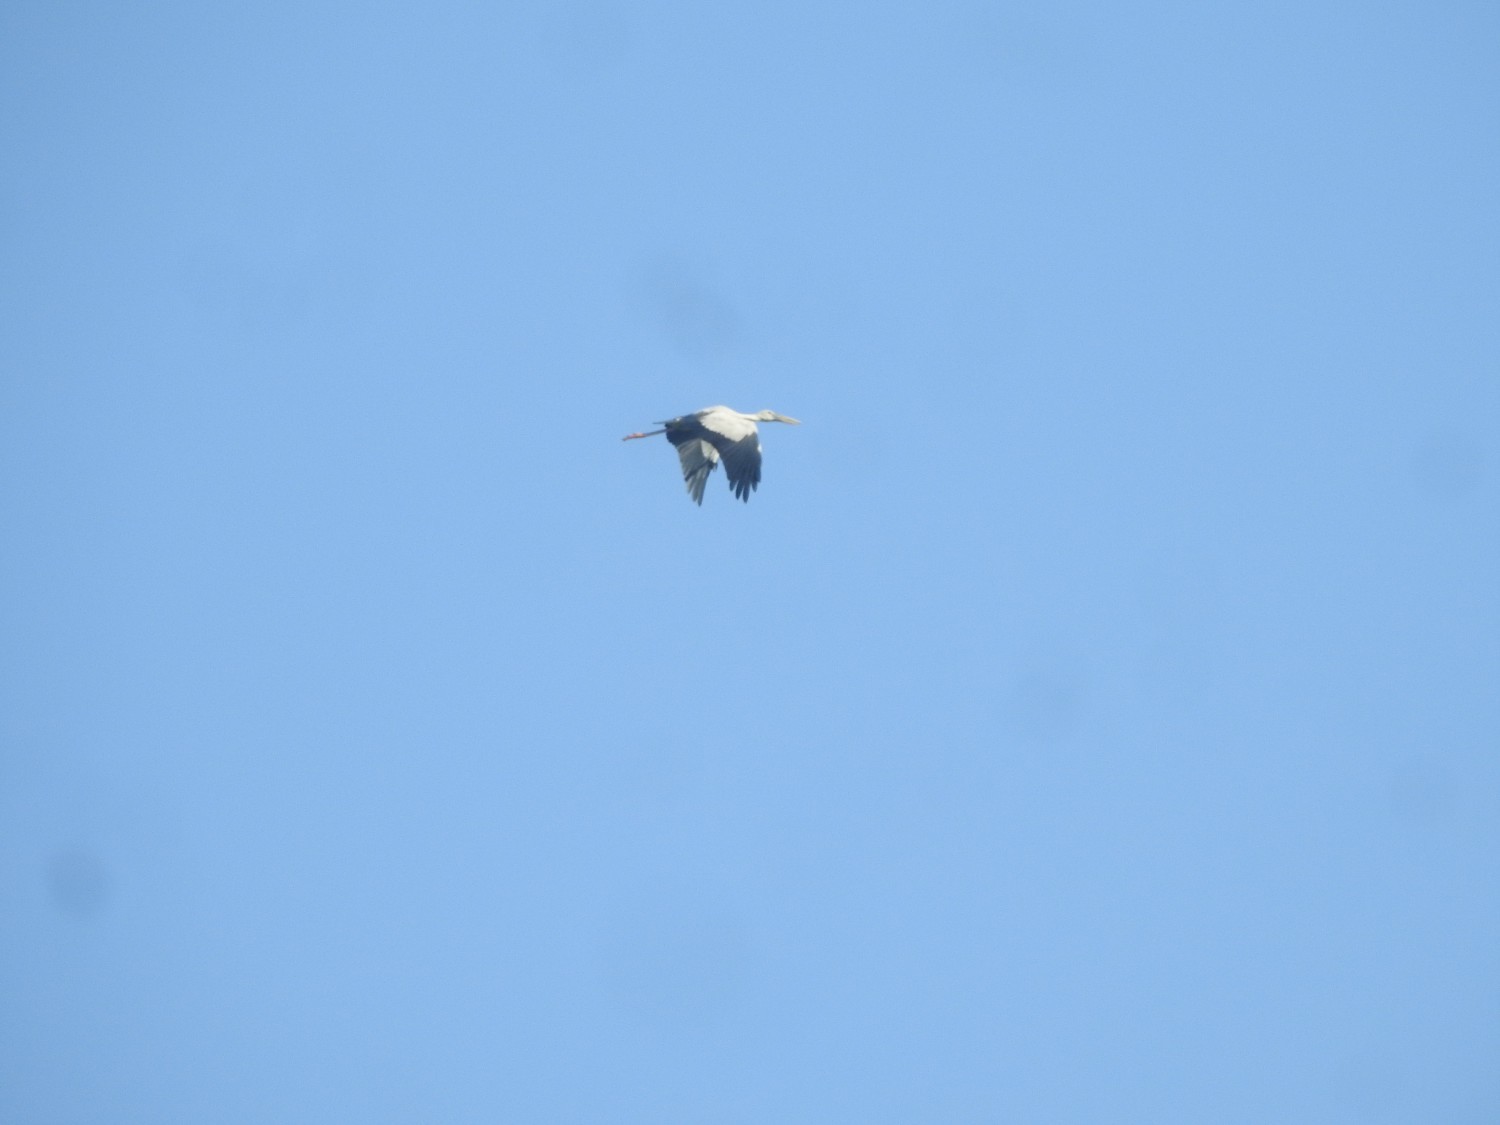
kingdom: Animalia
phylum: Chordata
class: Aves
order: Ciconiiformes
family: Ciconiidae
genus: Anastomus
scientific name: Anastomus oscitans
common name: Asian openbill
